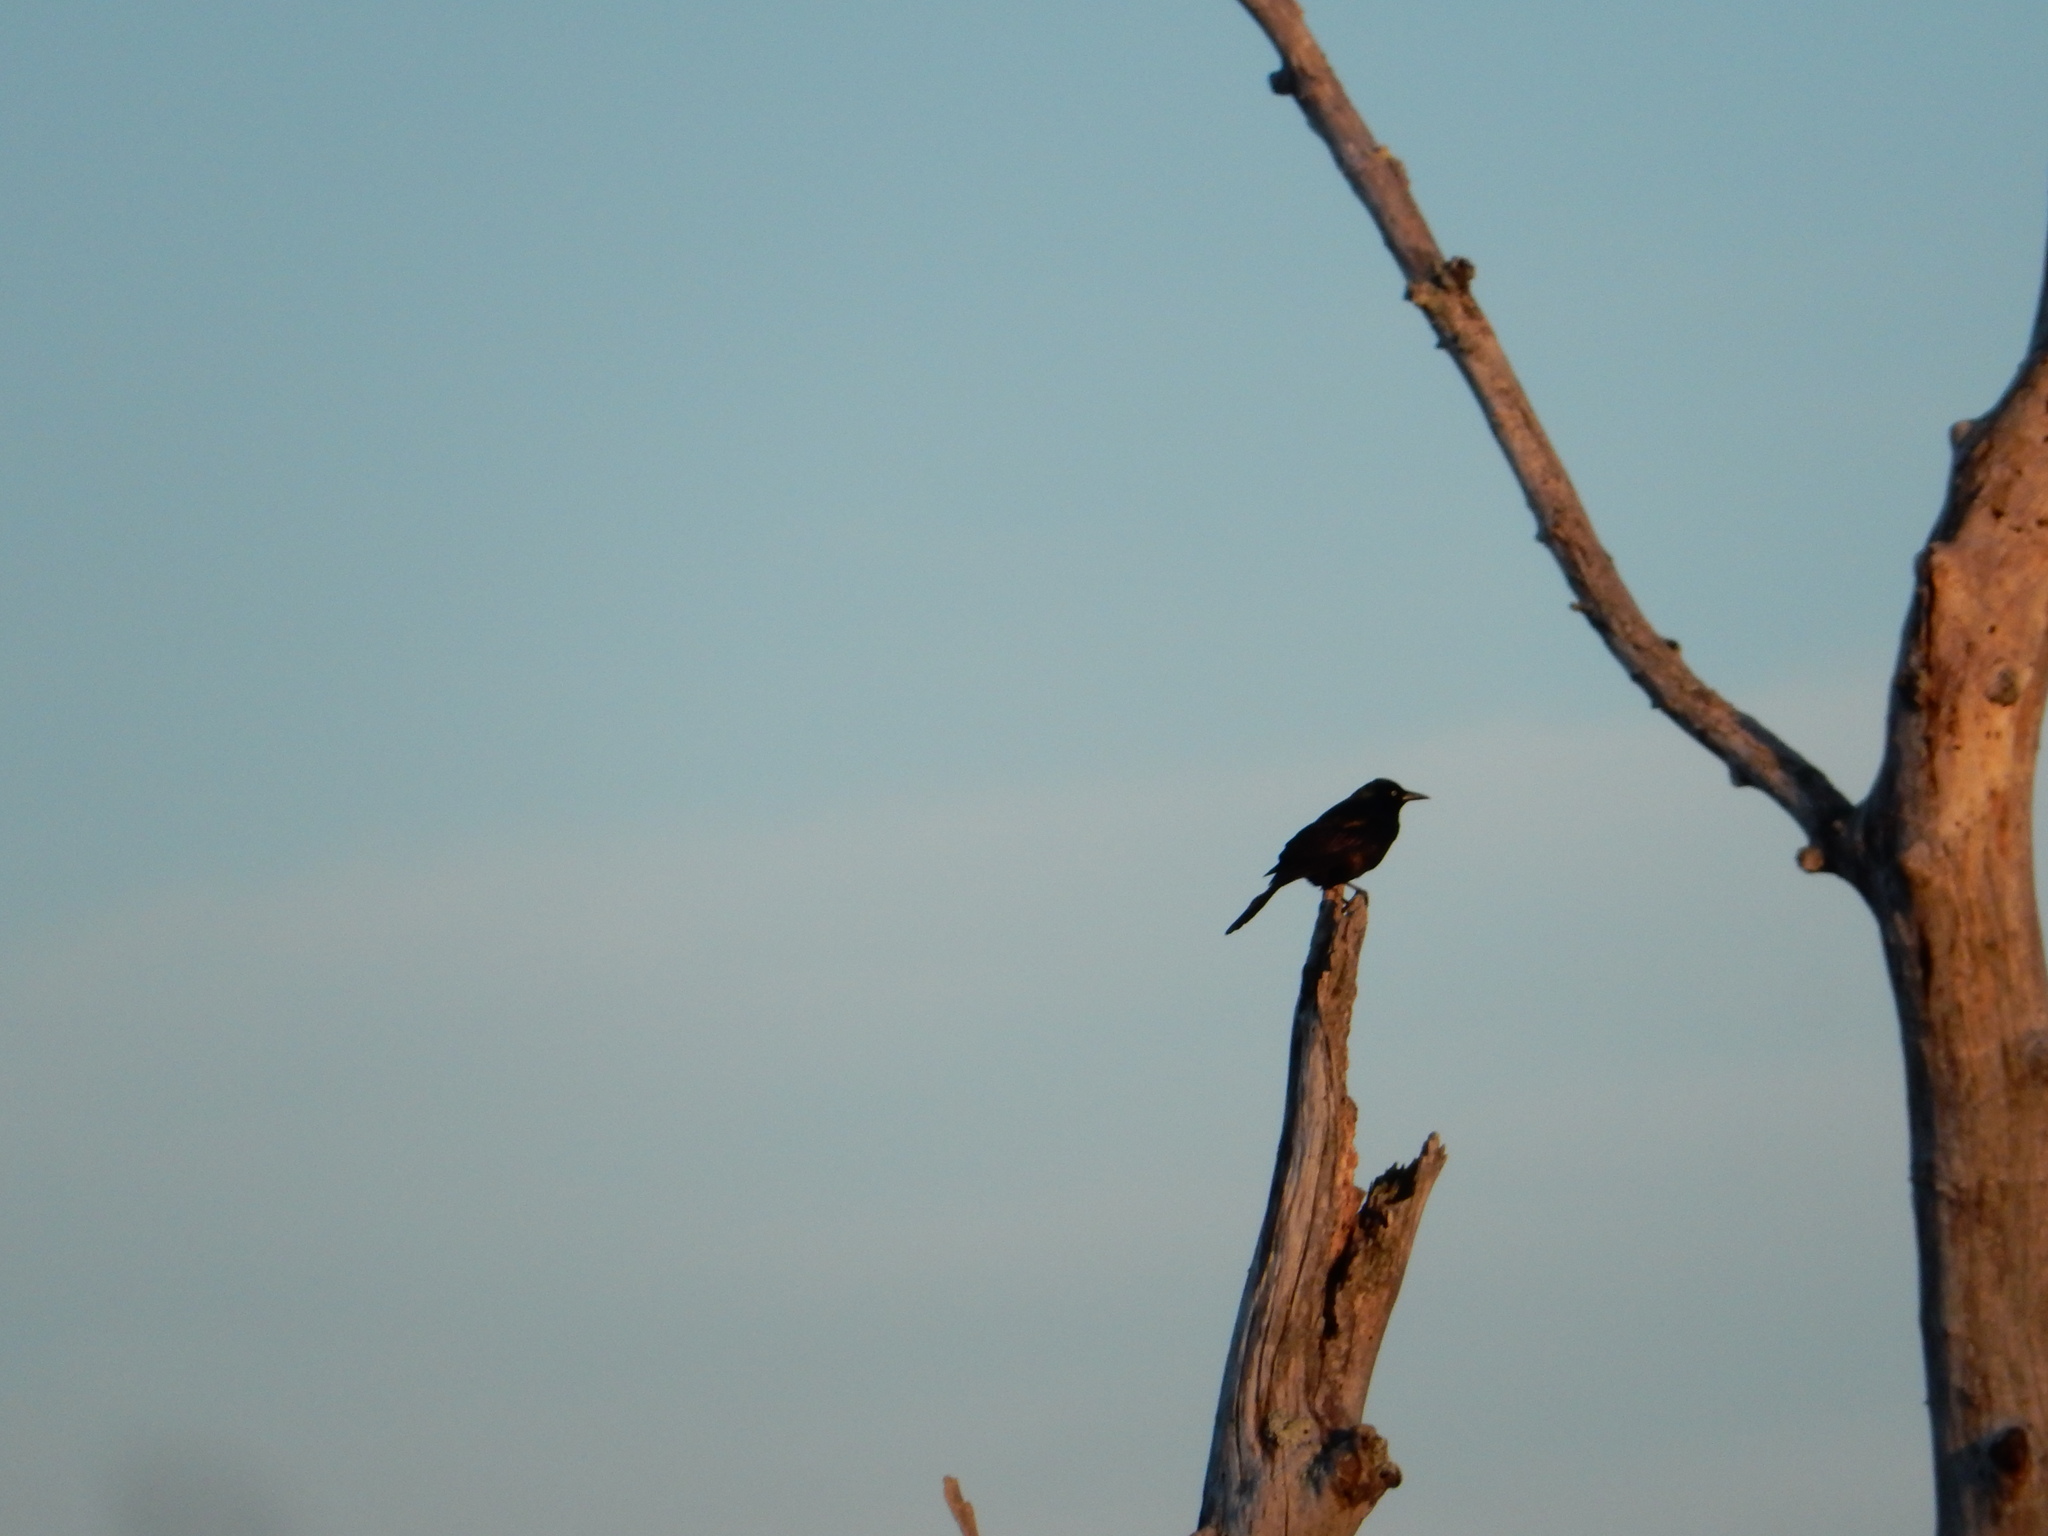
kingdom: Animalia
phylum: Chordata
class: Aves
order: Passeriformes
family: Icteridae
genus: Quiscalus
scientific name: Quiscalus quiscula
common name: Common grackle
